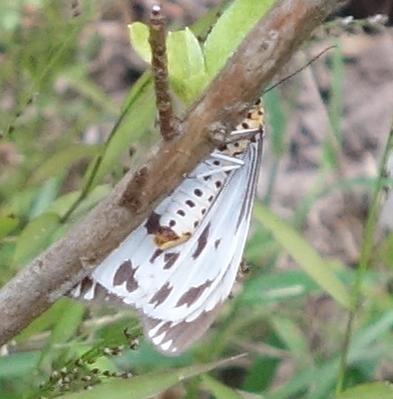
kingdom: Animalia
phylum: Arthropoda
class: Insecta
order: Lepidoptera
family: Erebidae
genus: Nyctemera
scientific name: Nyctemera adversata
